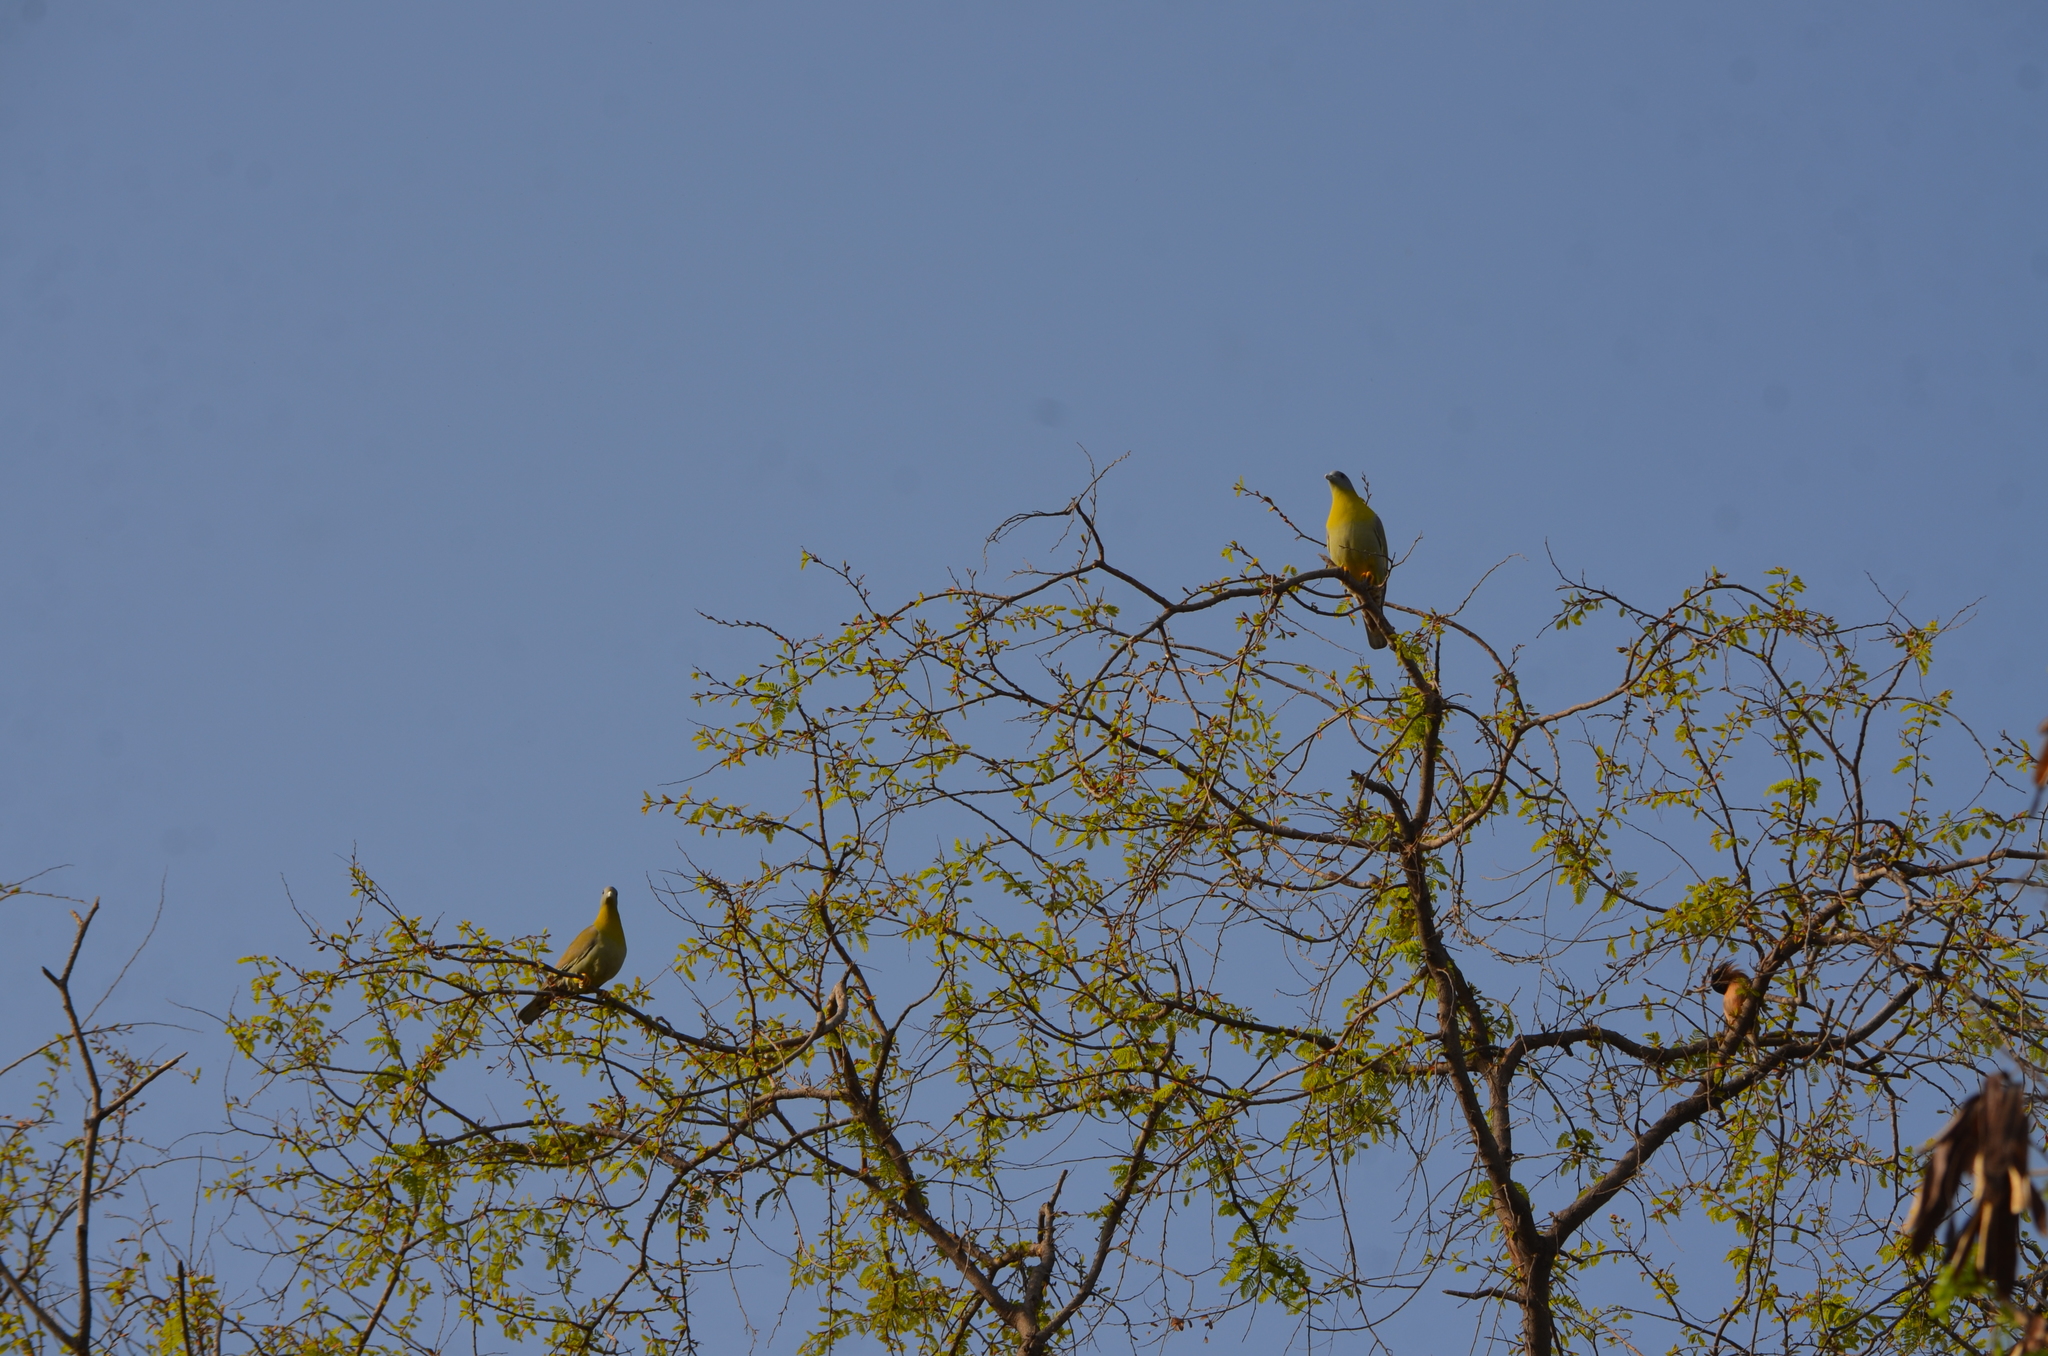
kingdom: Animalia
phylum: Chordata
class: Aves
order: Columbiformes
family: Columbidae
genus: Treron
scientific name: Treron phoenicopterus
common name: Yellow-footed green pigeon
